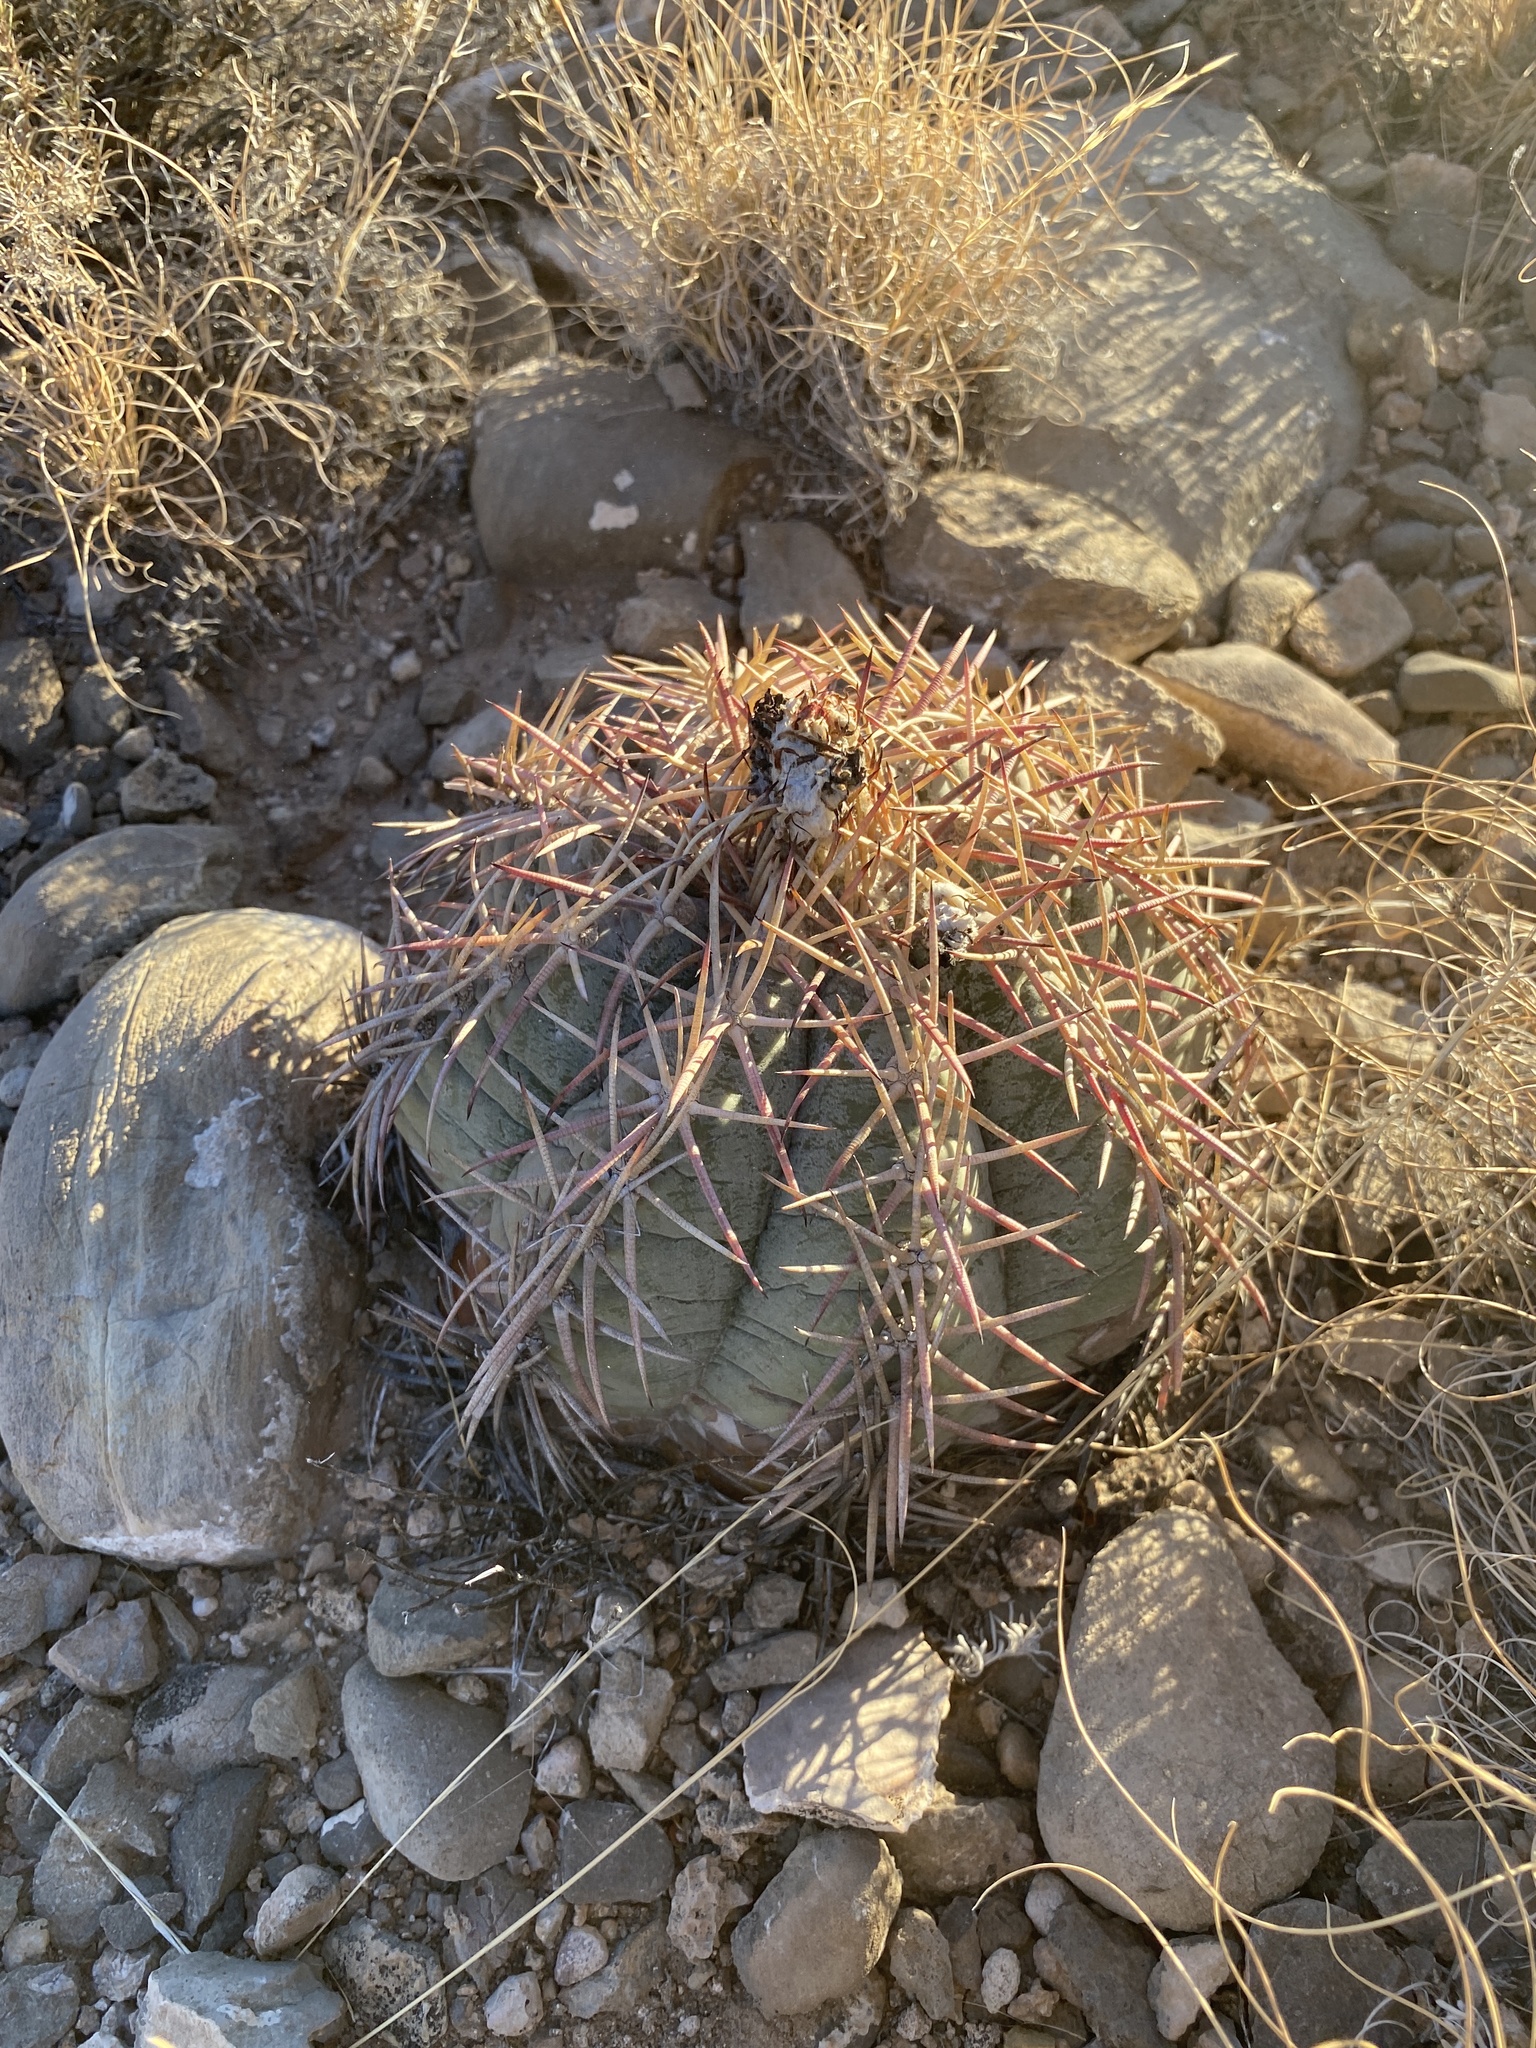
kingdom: Plantae
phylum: Tracheophyta
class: Magnoliopsida
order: Caryophyllales
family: Cactaceae
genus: Echinocactus
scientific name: Echinocactus horizonthalonius
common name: Devilshead
